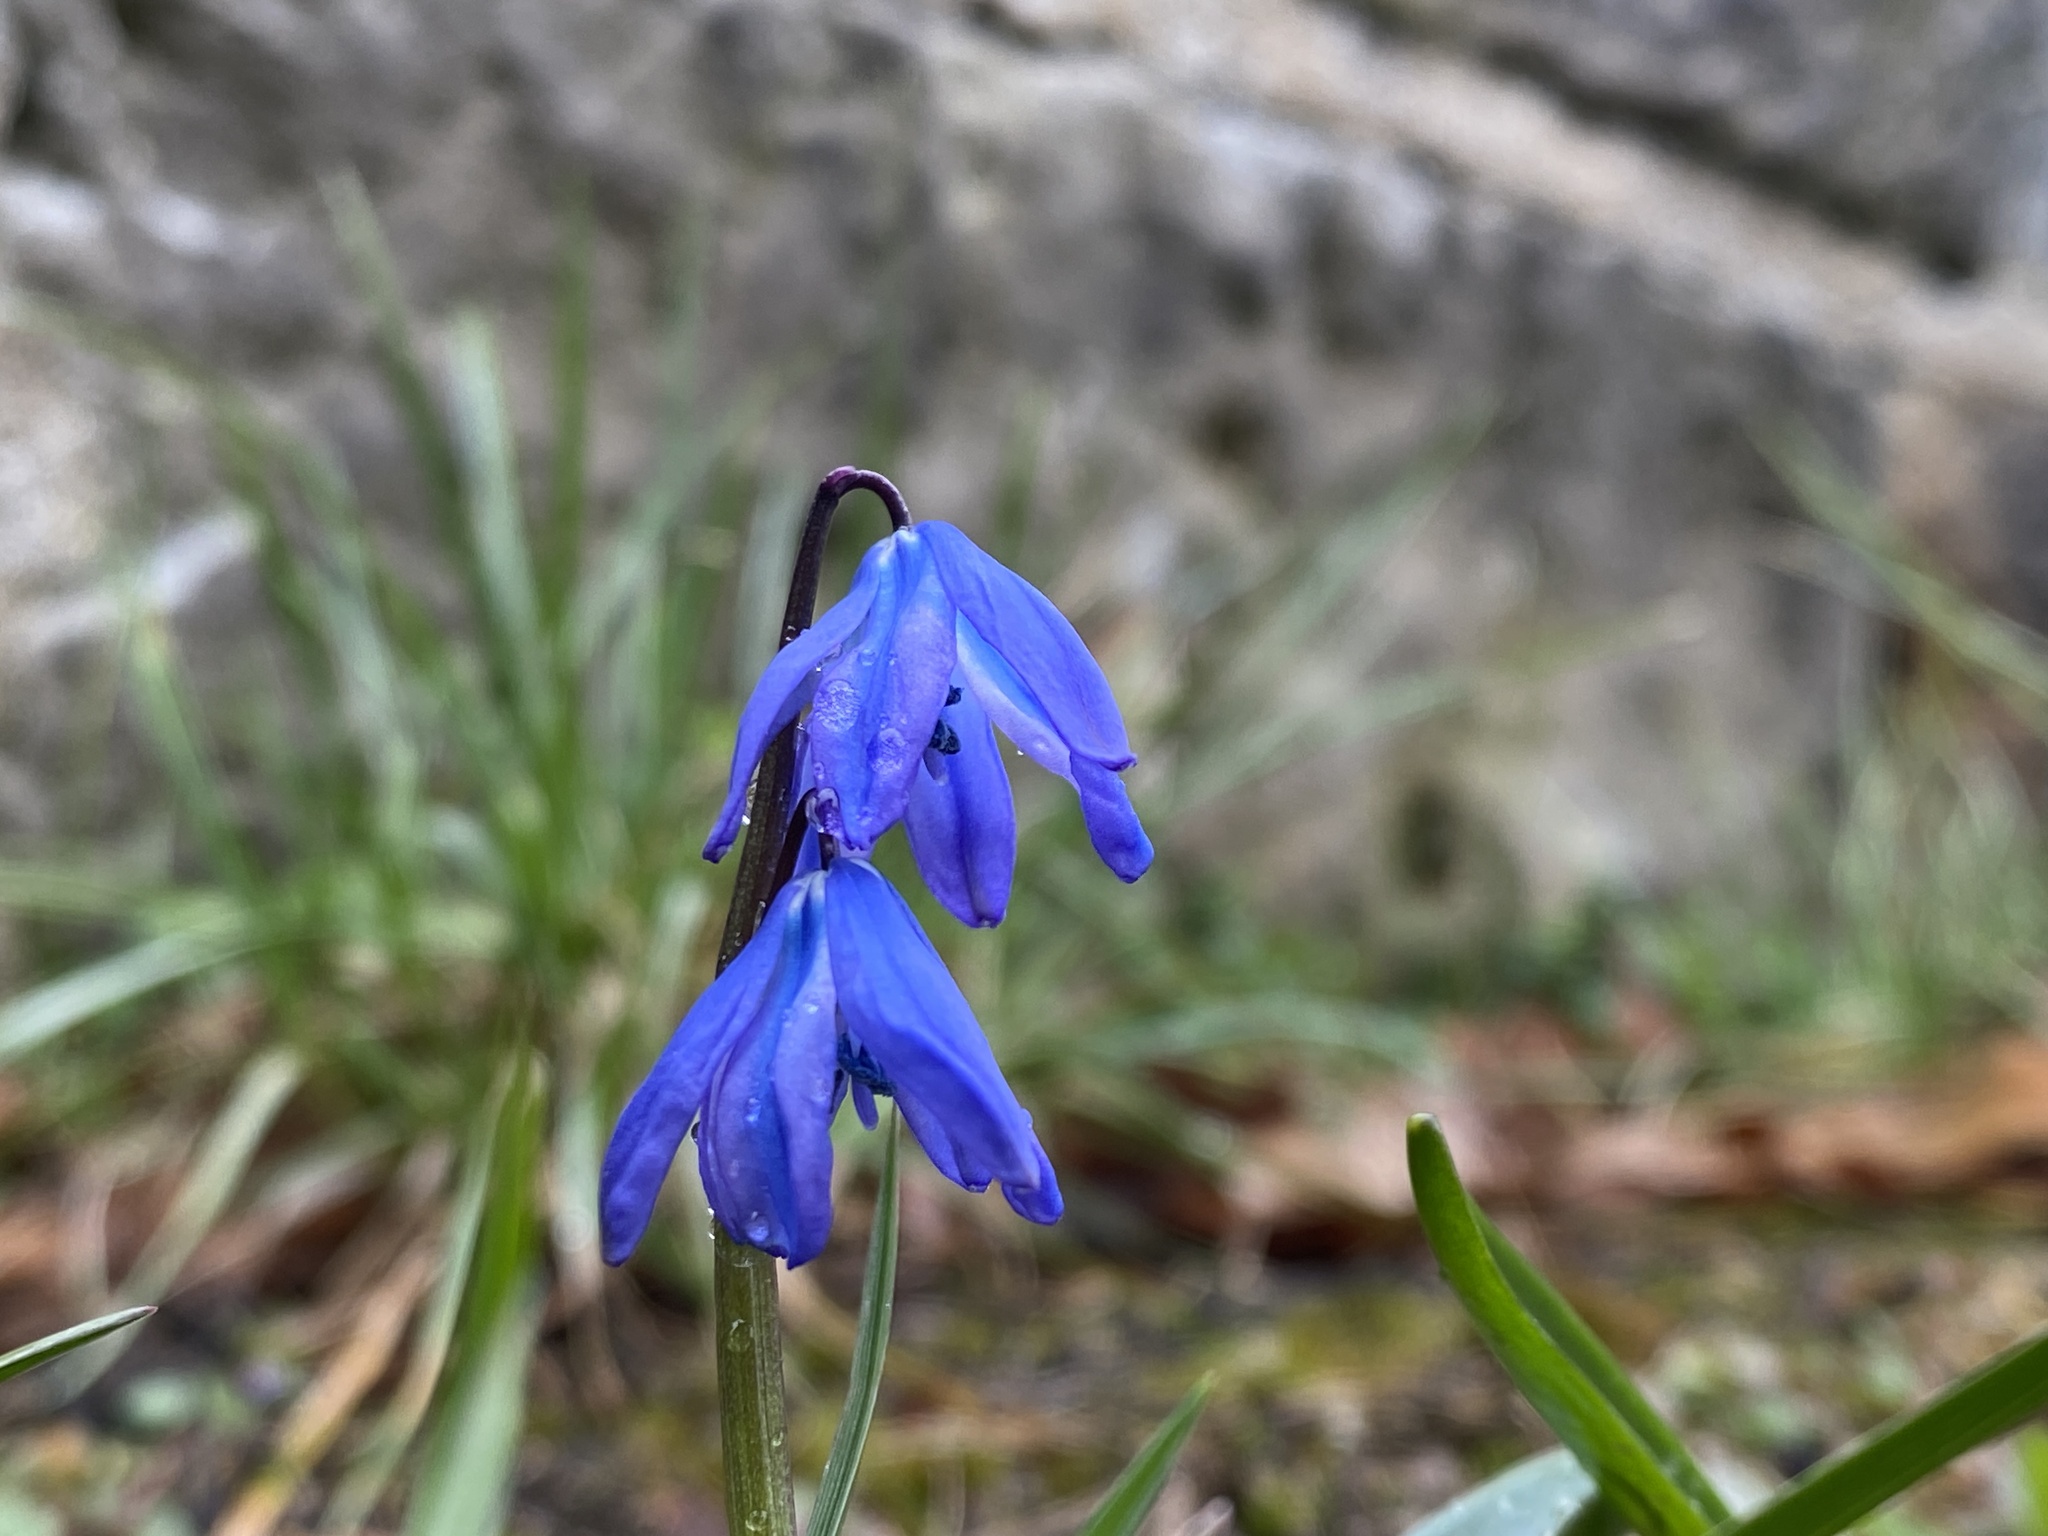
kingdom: Plantae
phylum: Tracheophyta
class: Liliopsida
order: Asparagales
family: Asparagaceae
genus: Scilla
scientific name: Scilla siberica
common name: Siberian squill
